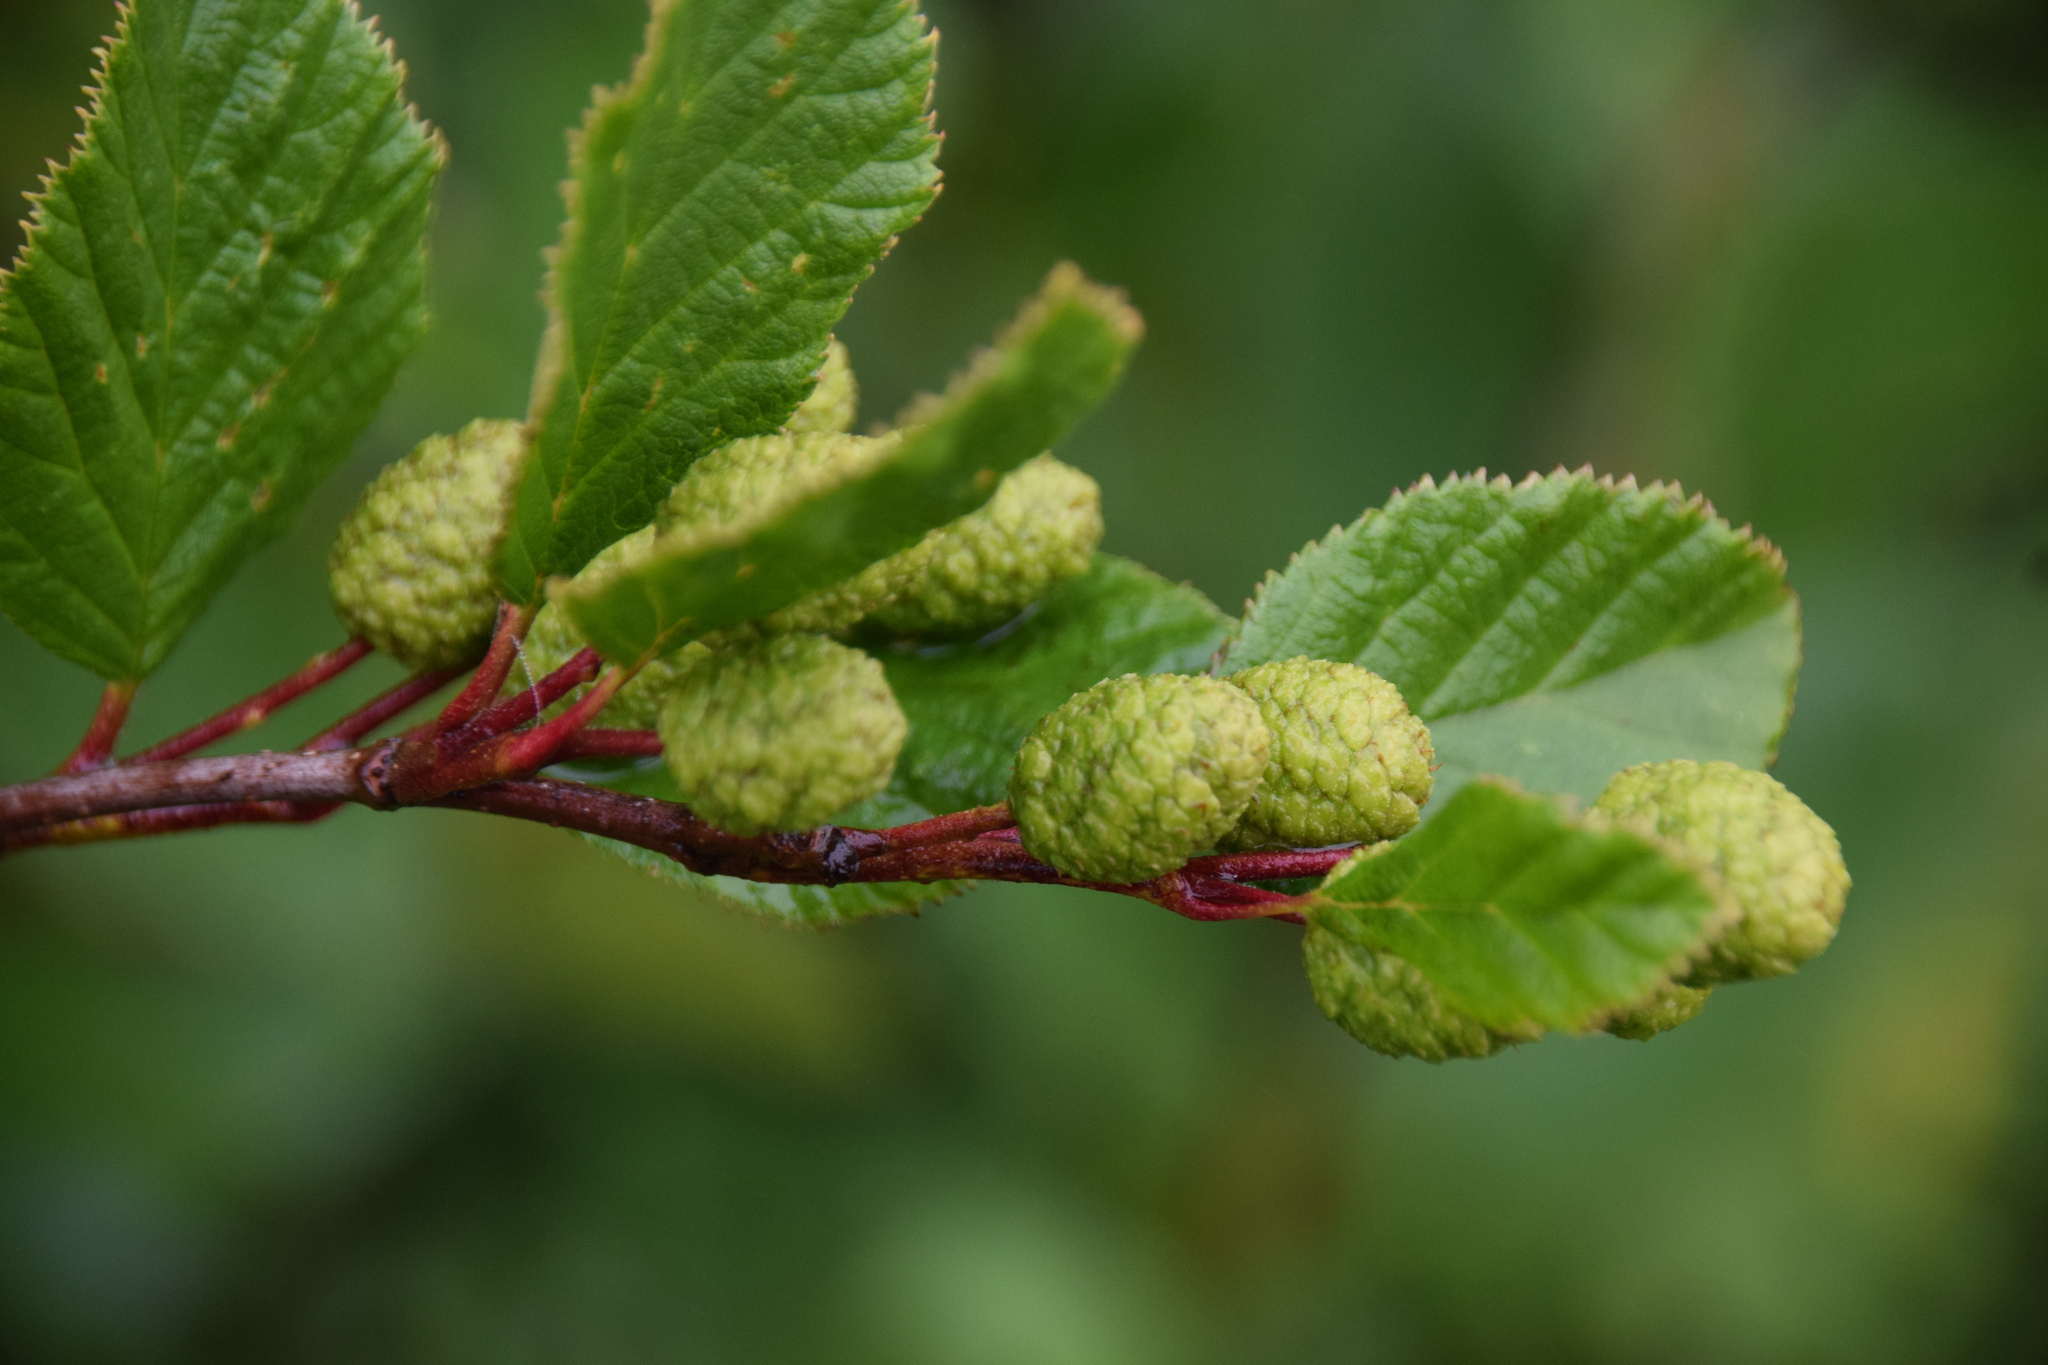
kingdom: Plantae
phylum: Tracheophyta
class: Magnoliopsida
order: Fagales
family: Betulaceae
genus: Alnus
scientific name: Alnus alnobetula
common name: Green alder
